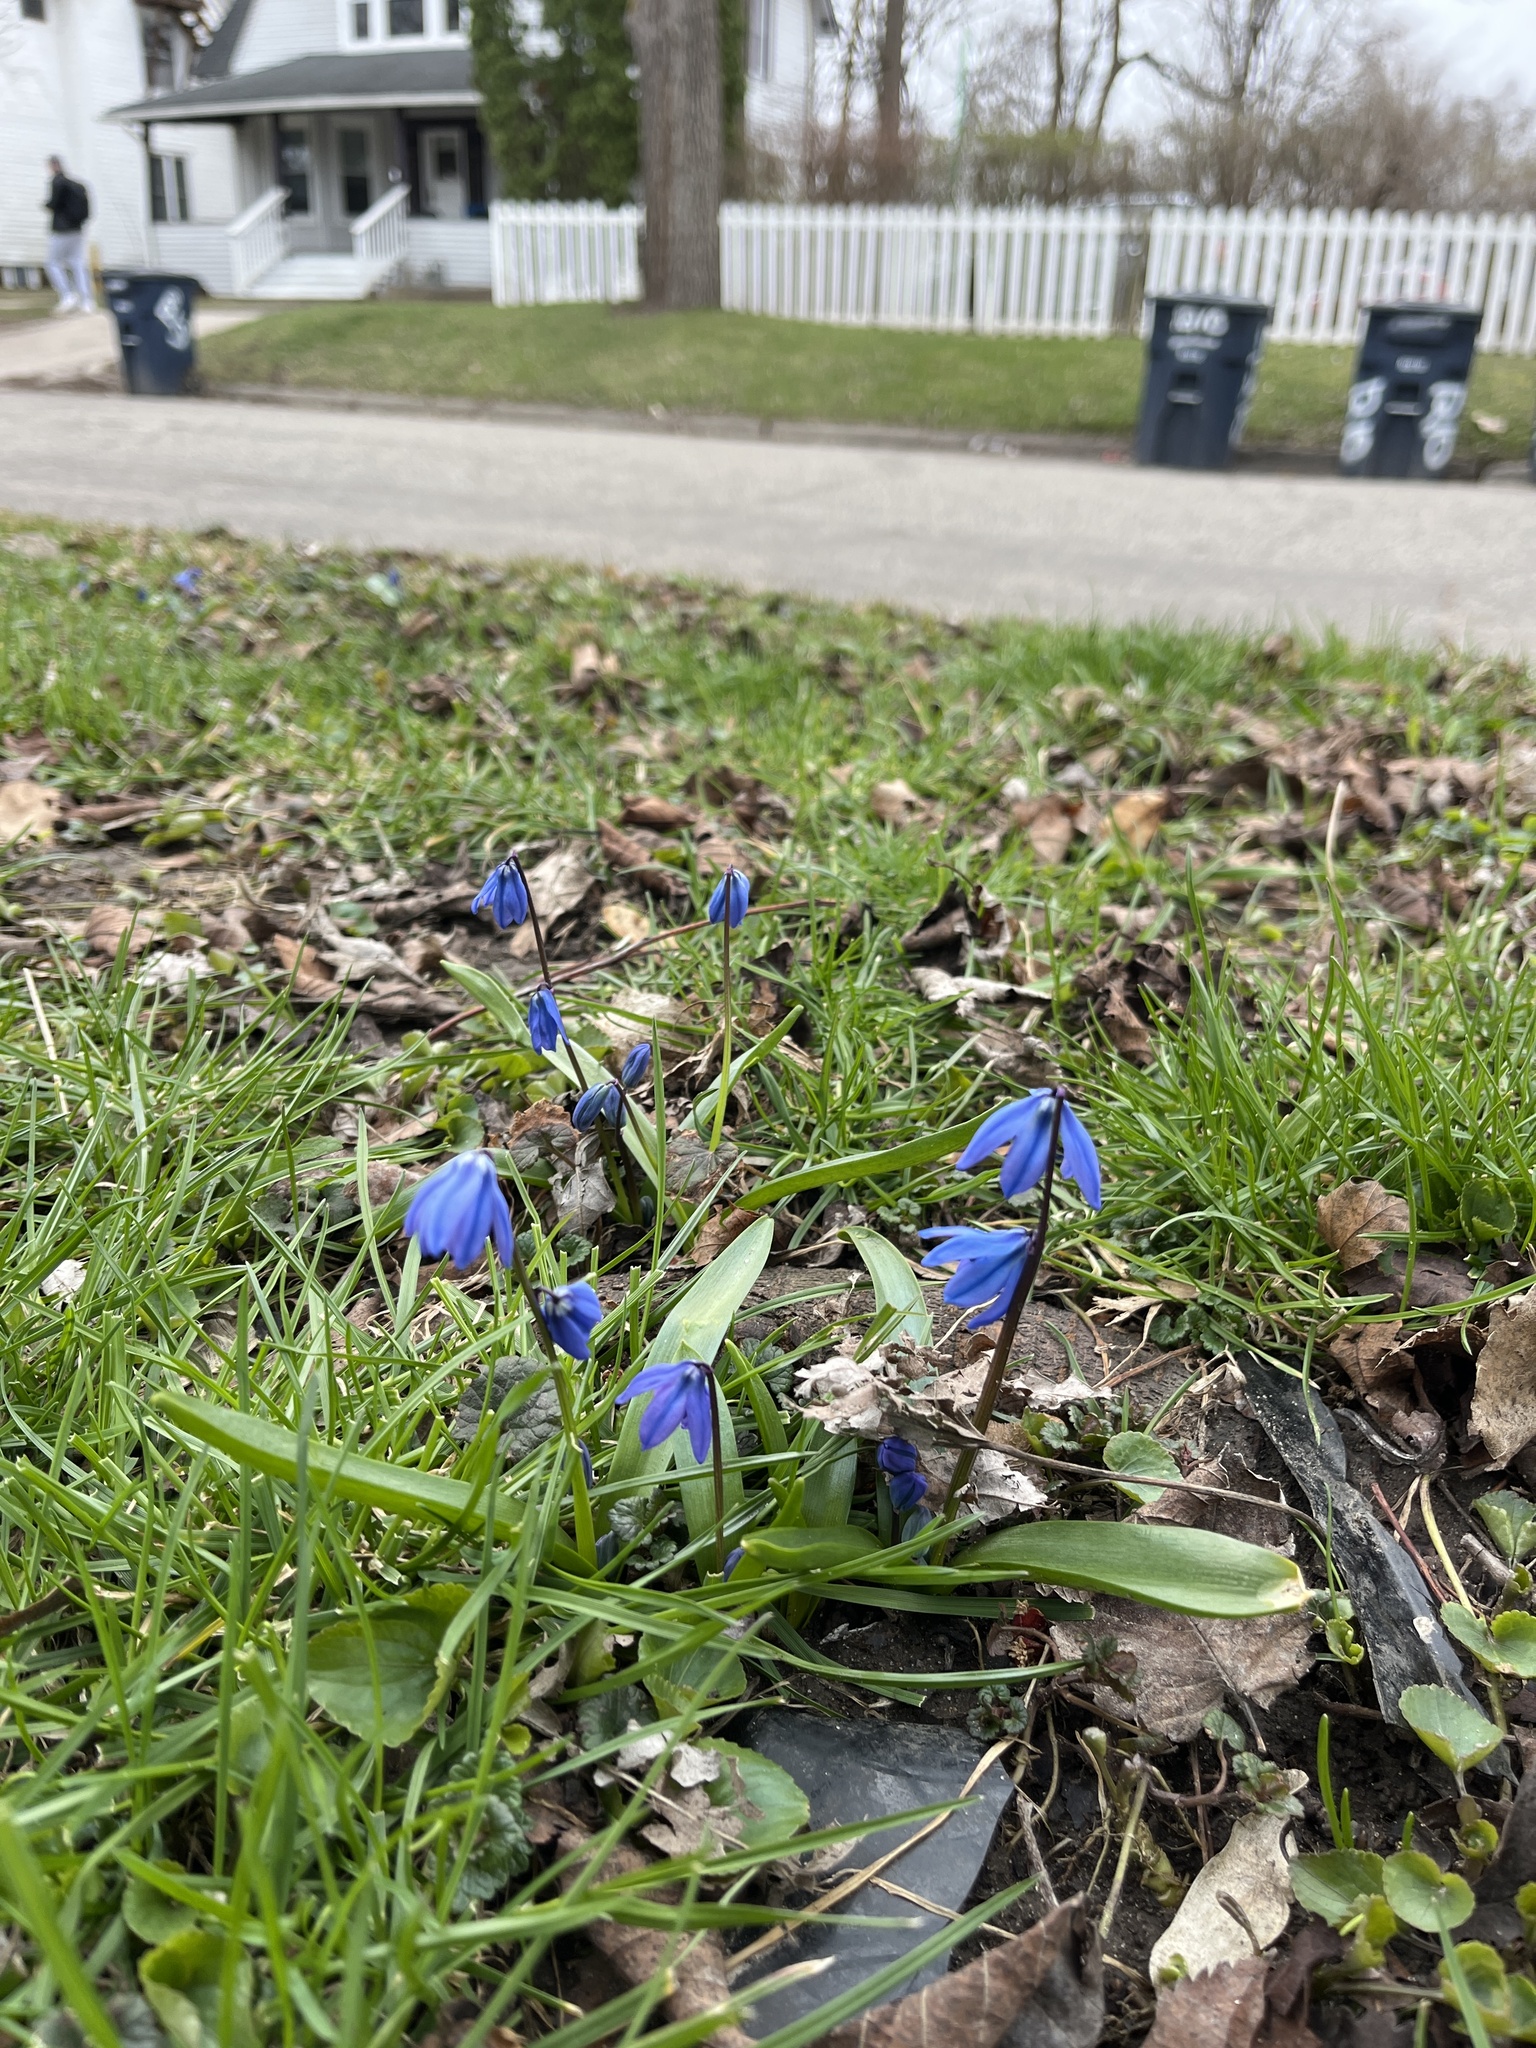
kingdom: Plantae
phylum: Tracheophyta
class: Liliopsida
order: Asparagales
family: Asparagaceae
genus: Scilla
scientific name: Scilla siberica
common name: Siberian squill
